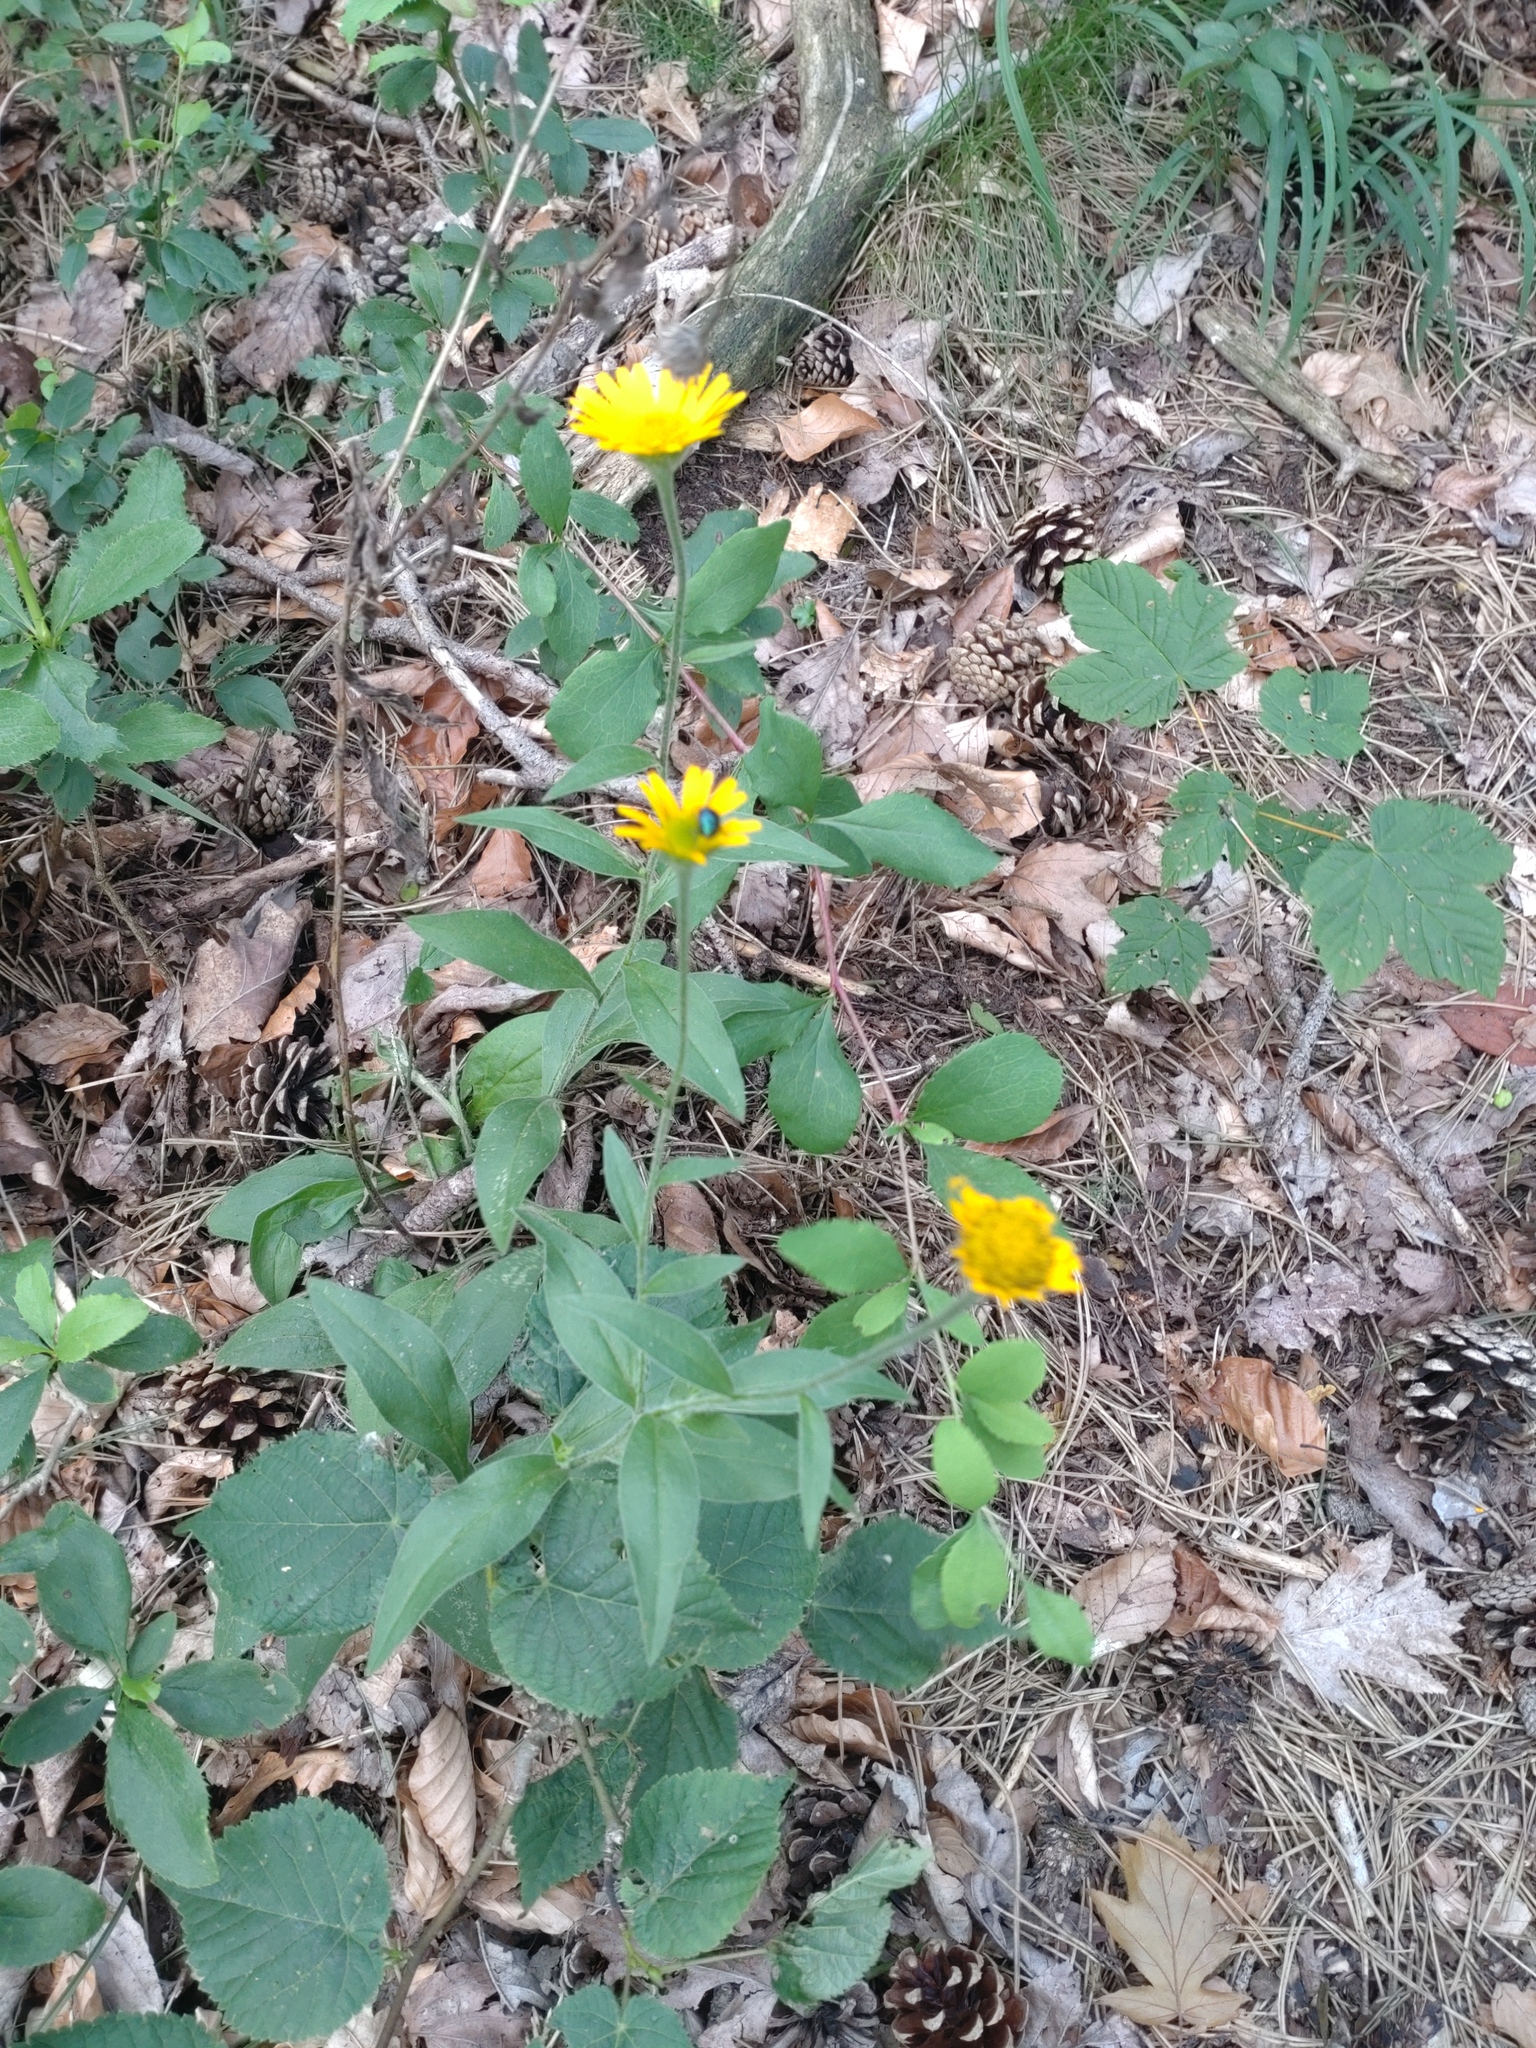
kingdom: Plantae
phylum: Tracheophyta
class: Magnoliopsida
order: Asterales
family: Asteraceae
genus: Buphthalmum
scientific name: Buphthalmum salicifolium
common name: Willow-leaved yellow-oxeye
